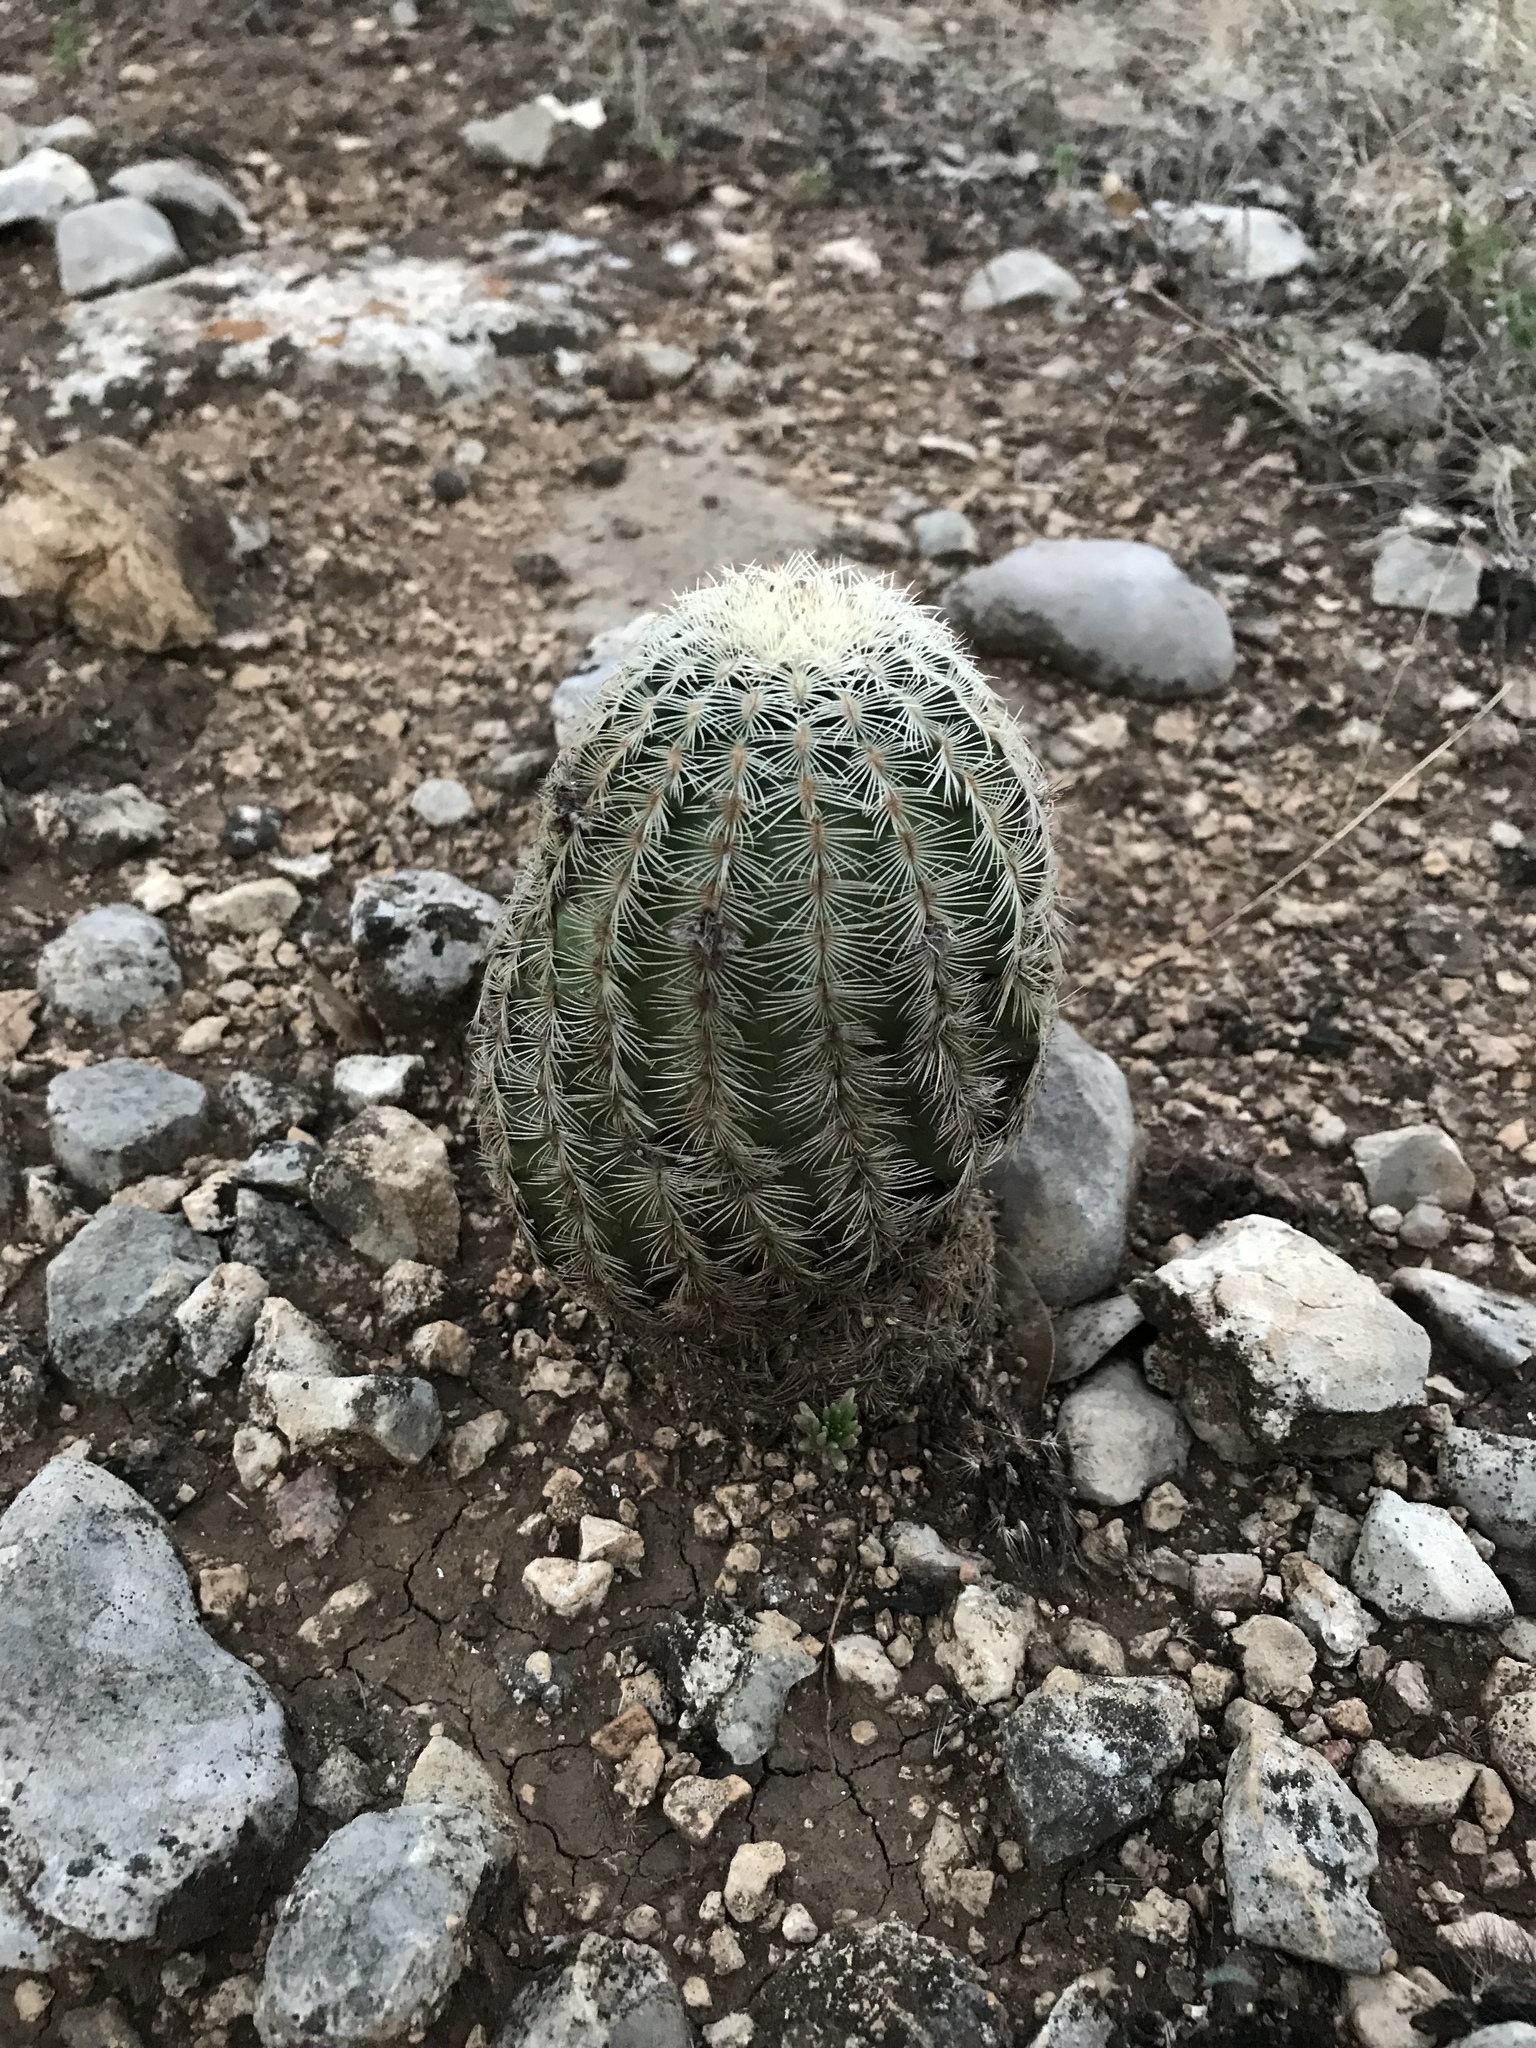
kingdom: Plantae
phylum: Tracheophyta
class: Magnoliopsida
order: Caryophyllales
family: Cactaceae
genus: Echinocereus
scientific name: Echinocereus reichenbachii
